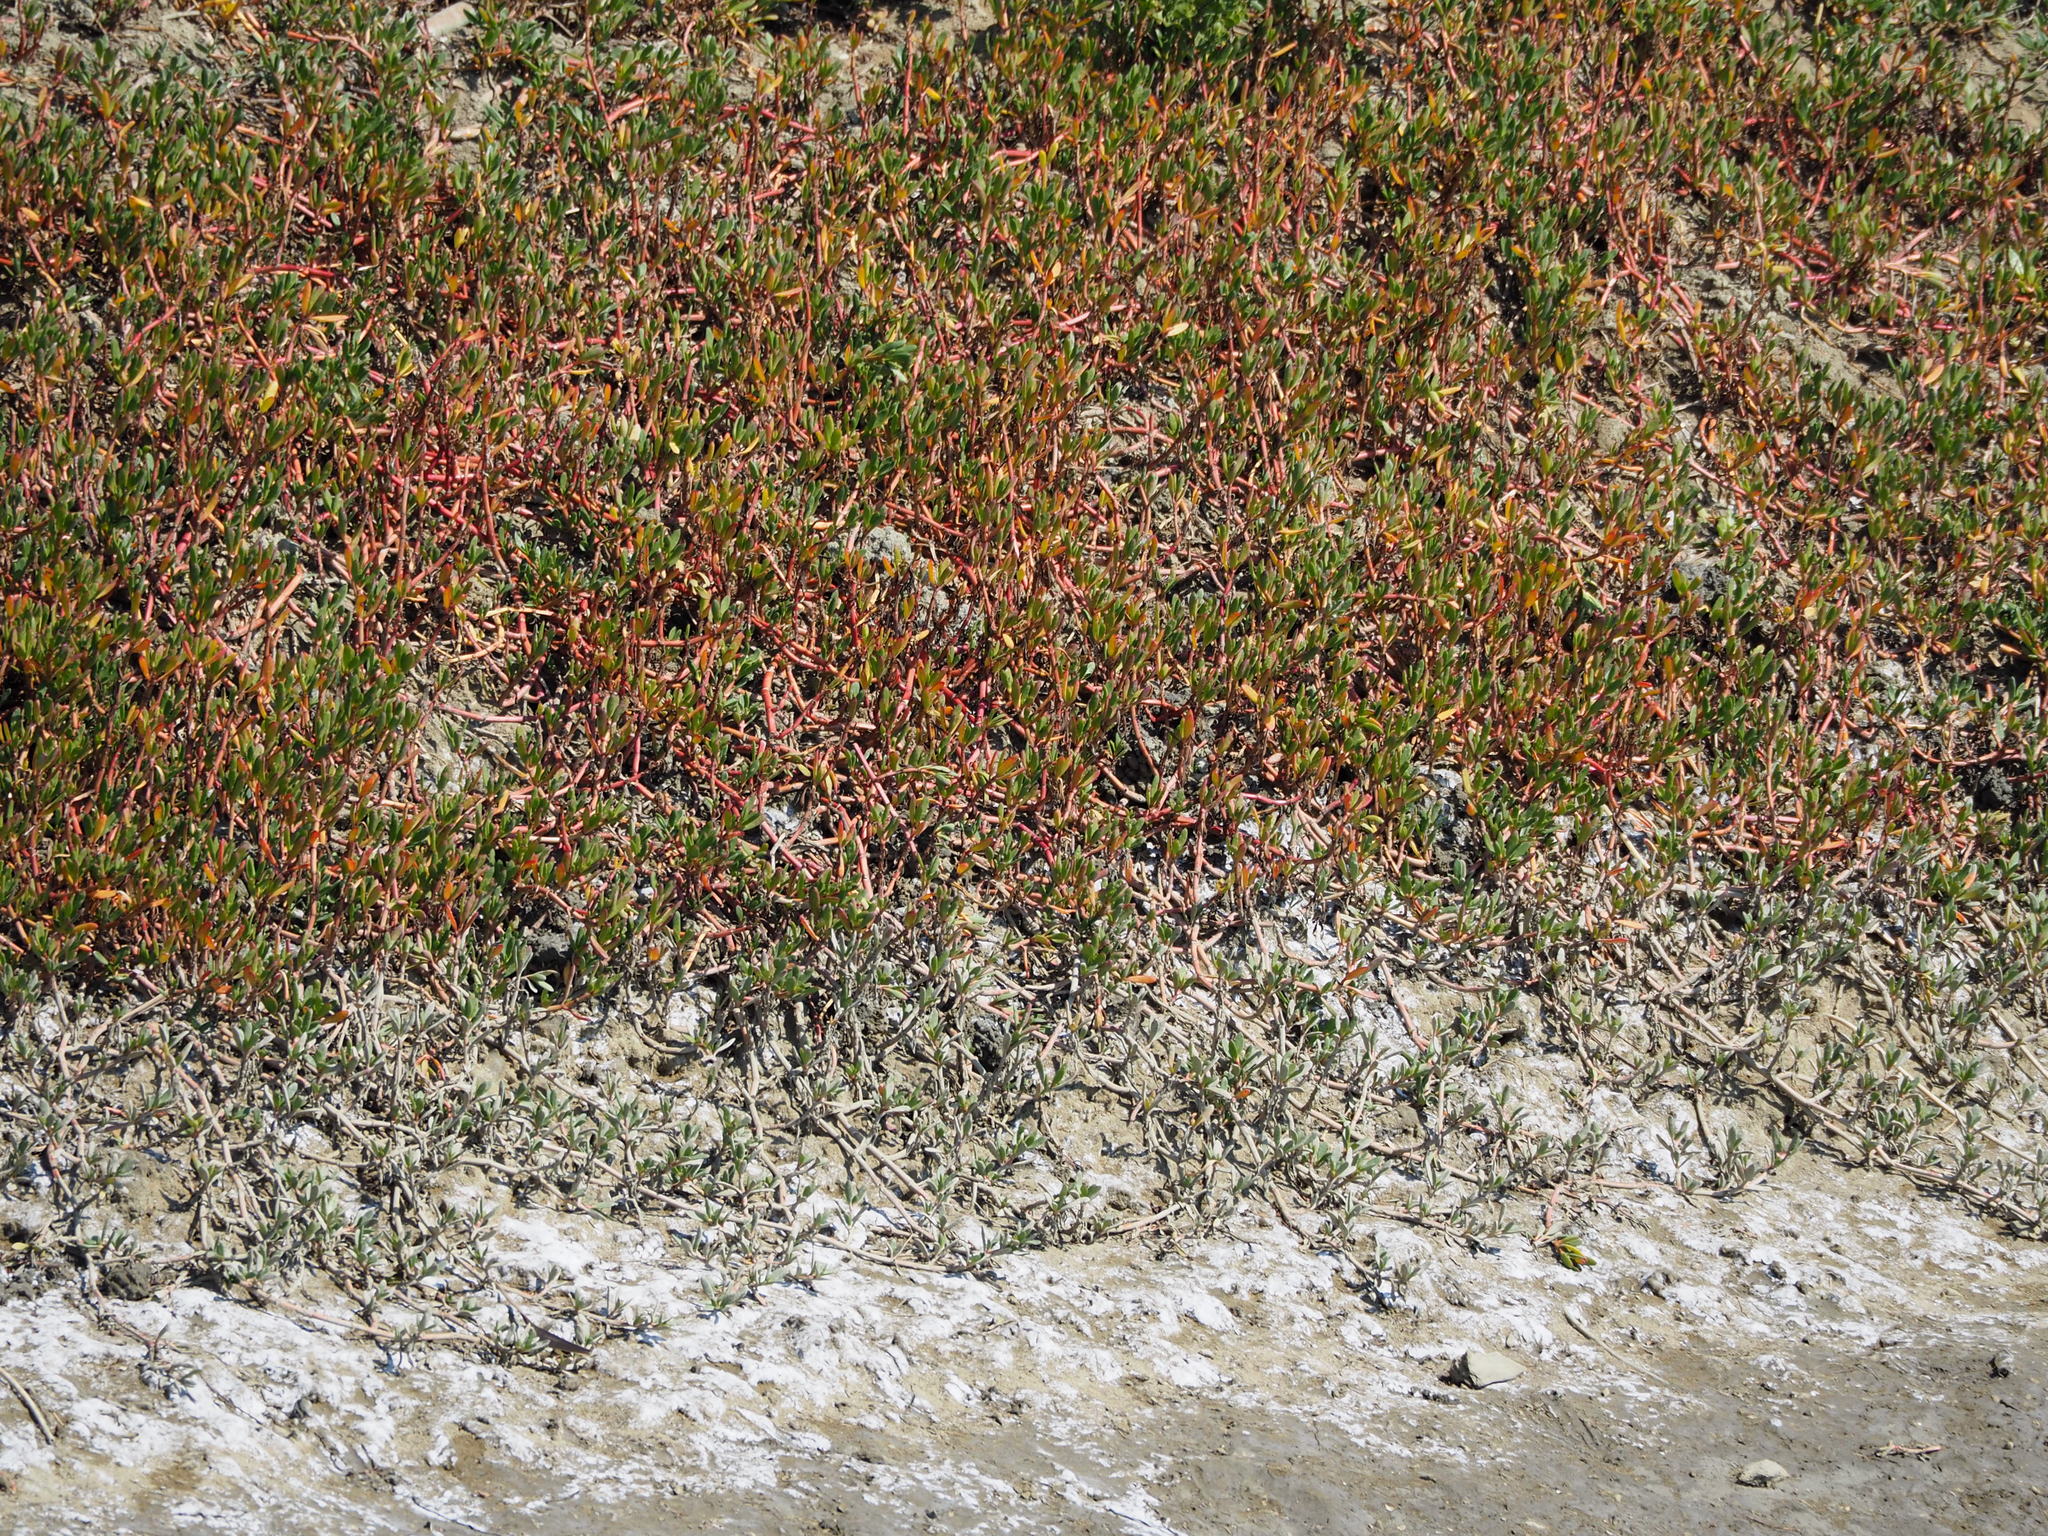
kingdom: Plantae
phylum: Tracheophyta
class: Magnoliopsida
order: Caryophyllales
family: Aizoaceae
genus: Sesuvium
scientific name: Sesuvium portulacastrum
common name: Sea-purslane
